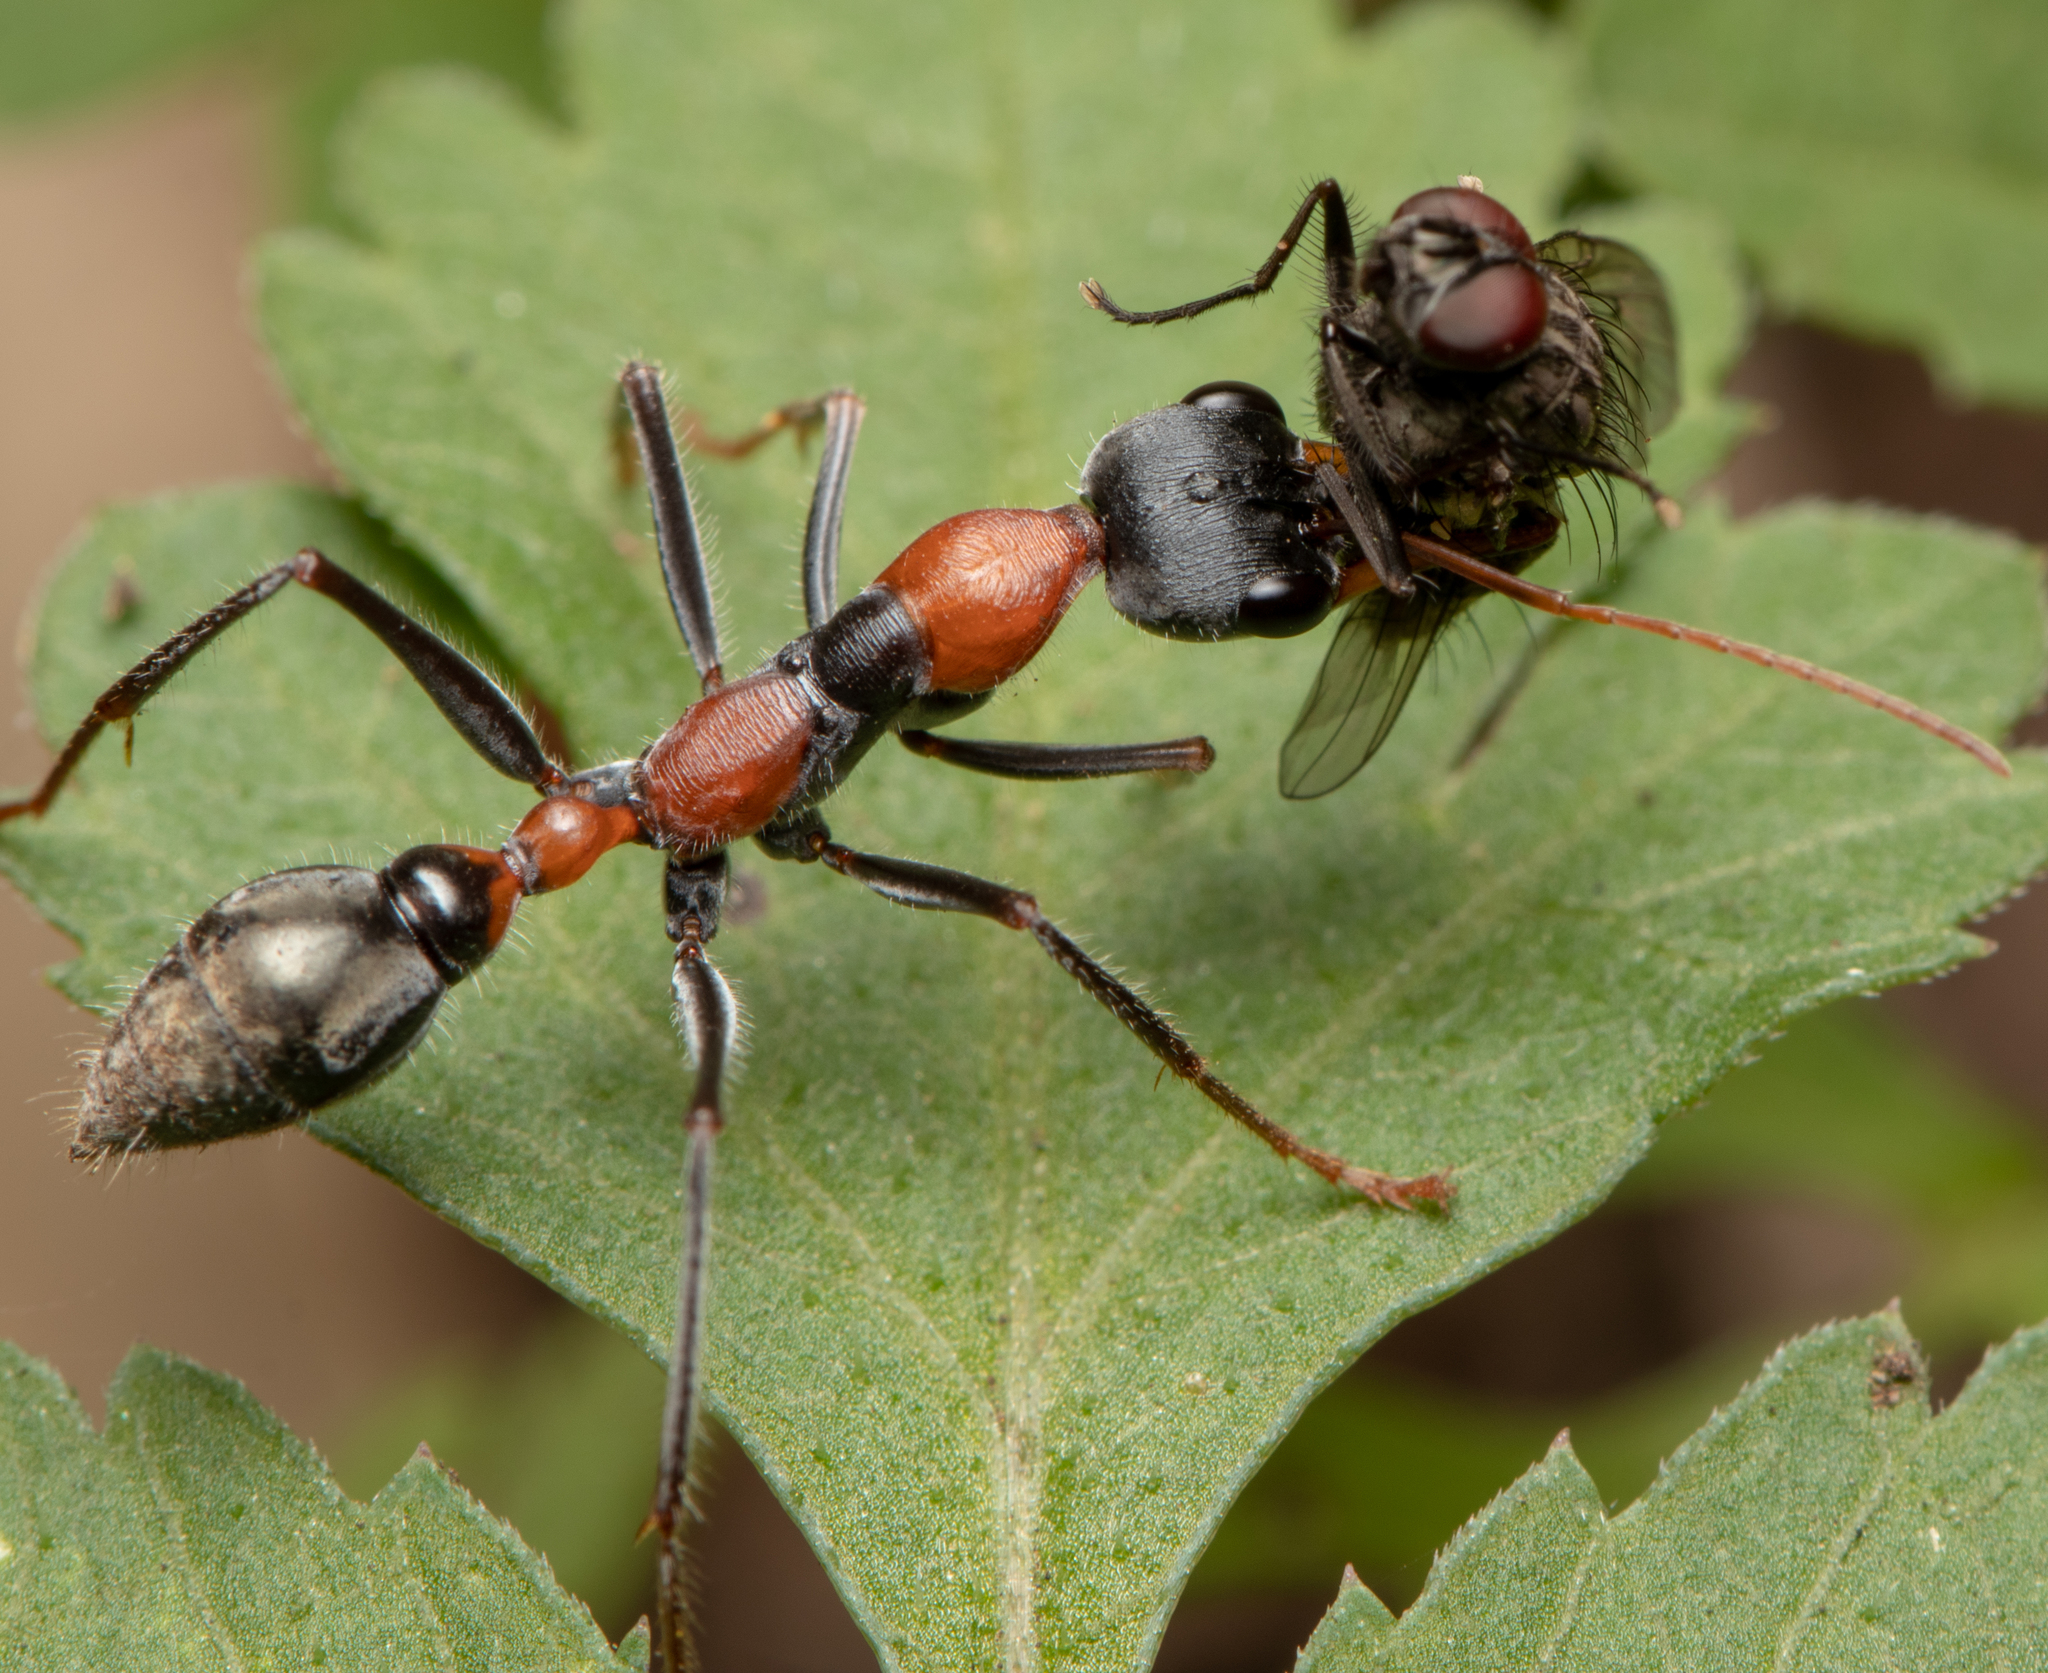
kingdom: Animalia
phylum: Arthropoda
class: Insecta
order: Hymenoptera
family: Formicidae
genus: Myrmecia
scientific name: Myrmecia nigrocincta
